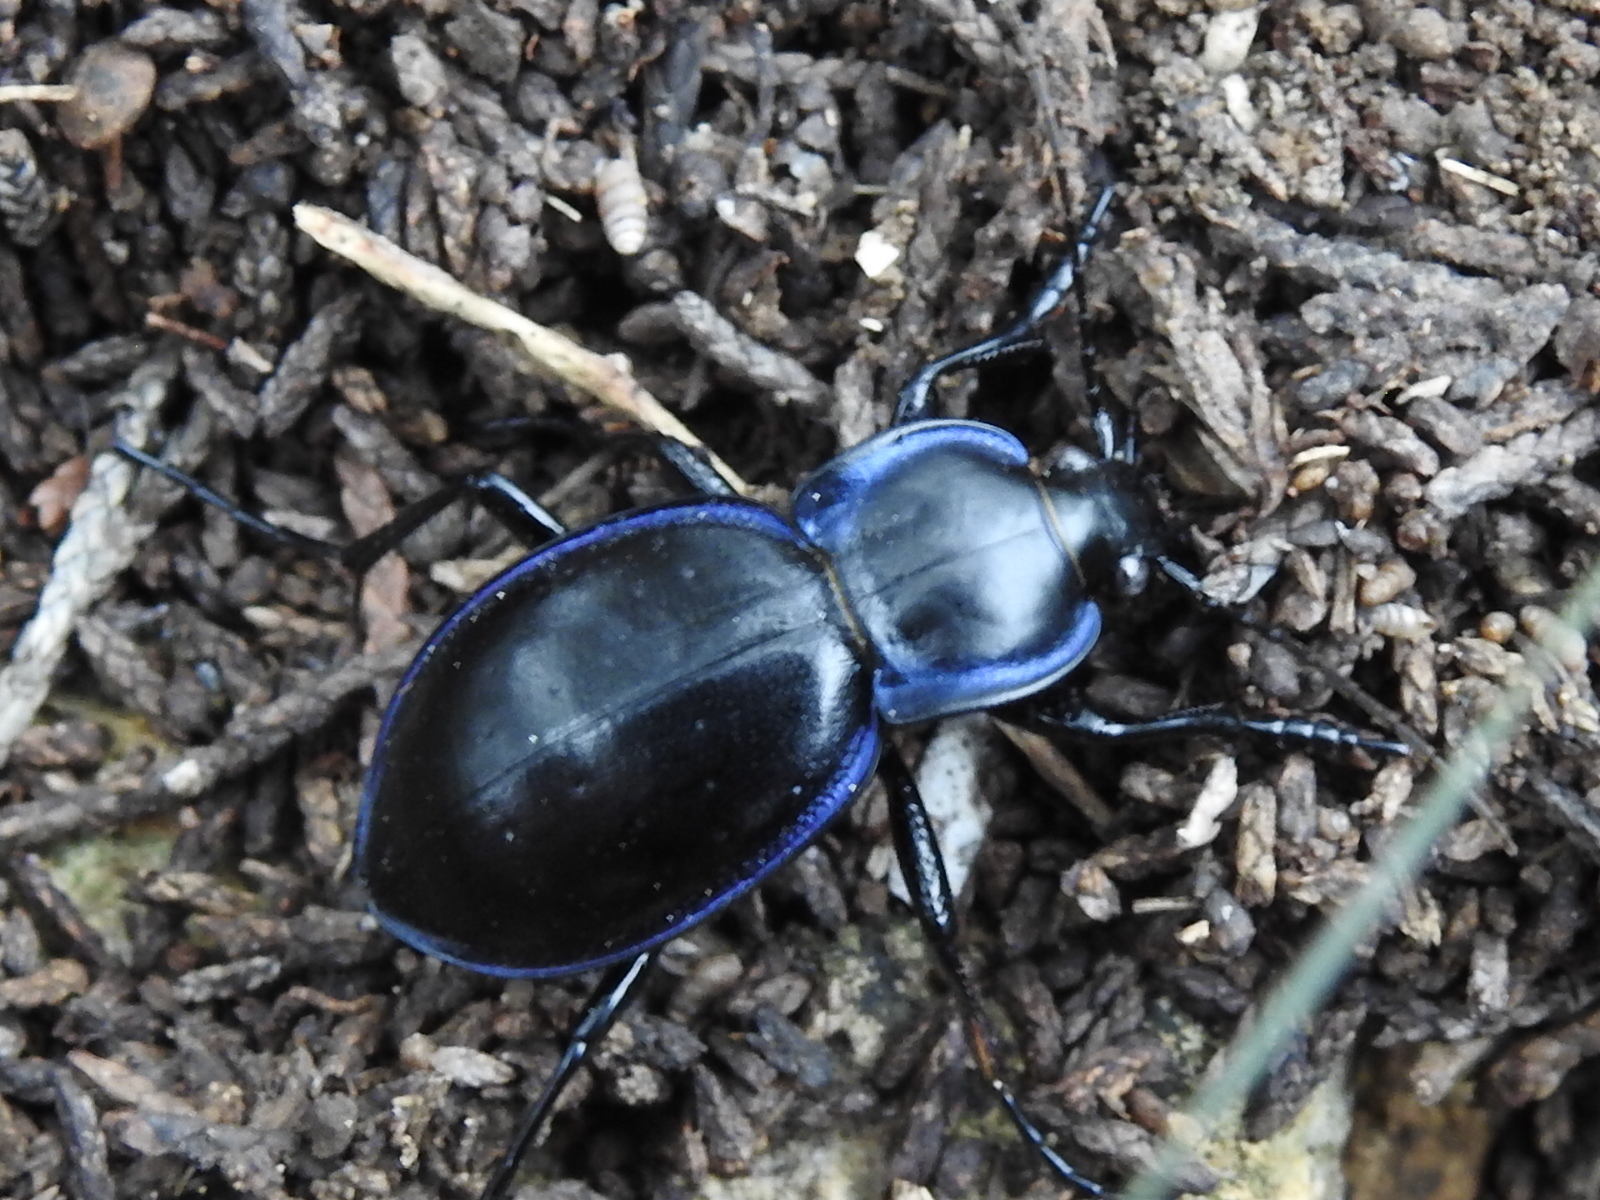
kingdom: Animalia
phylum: Arthropoda
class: Insecta
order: Coleoptera
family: Carabidae
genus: Carabus
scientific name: Carabus finitimus
